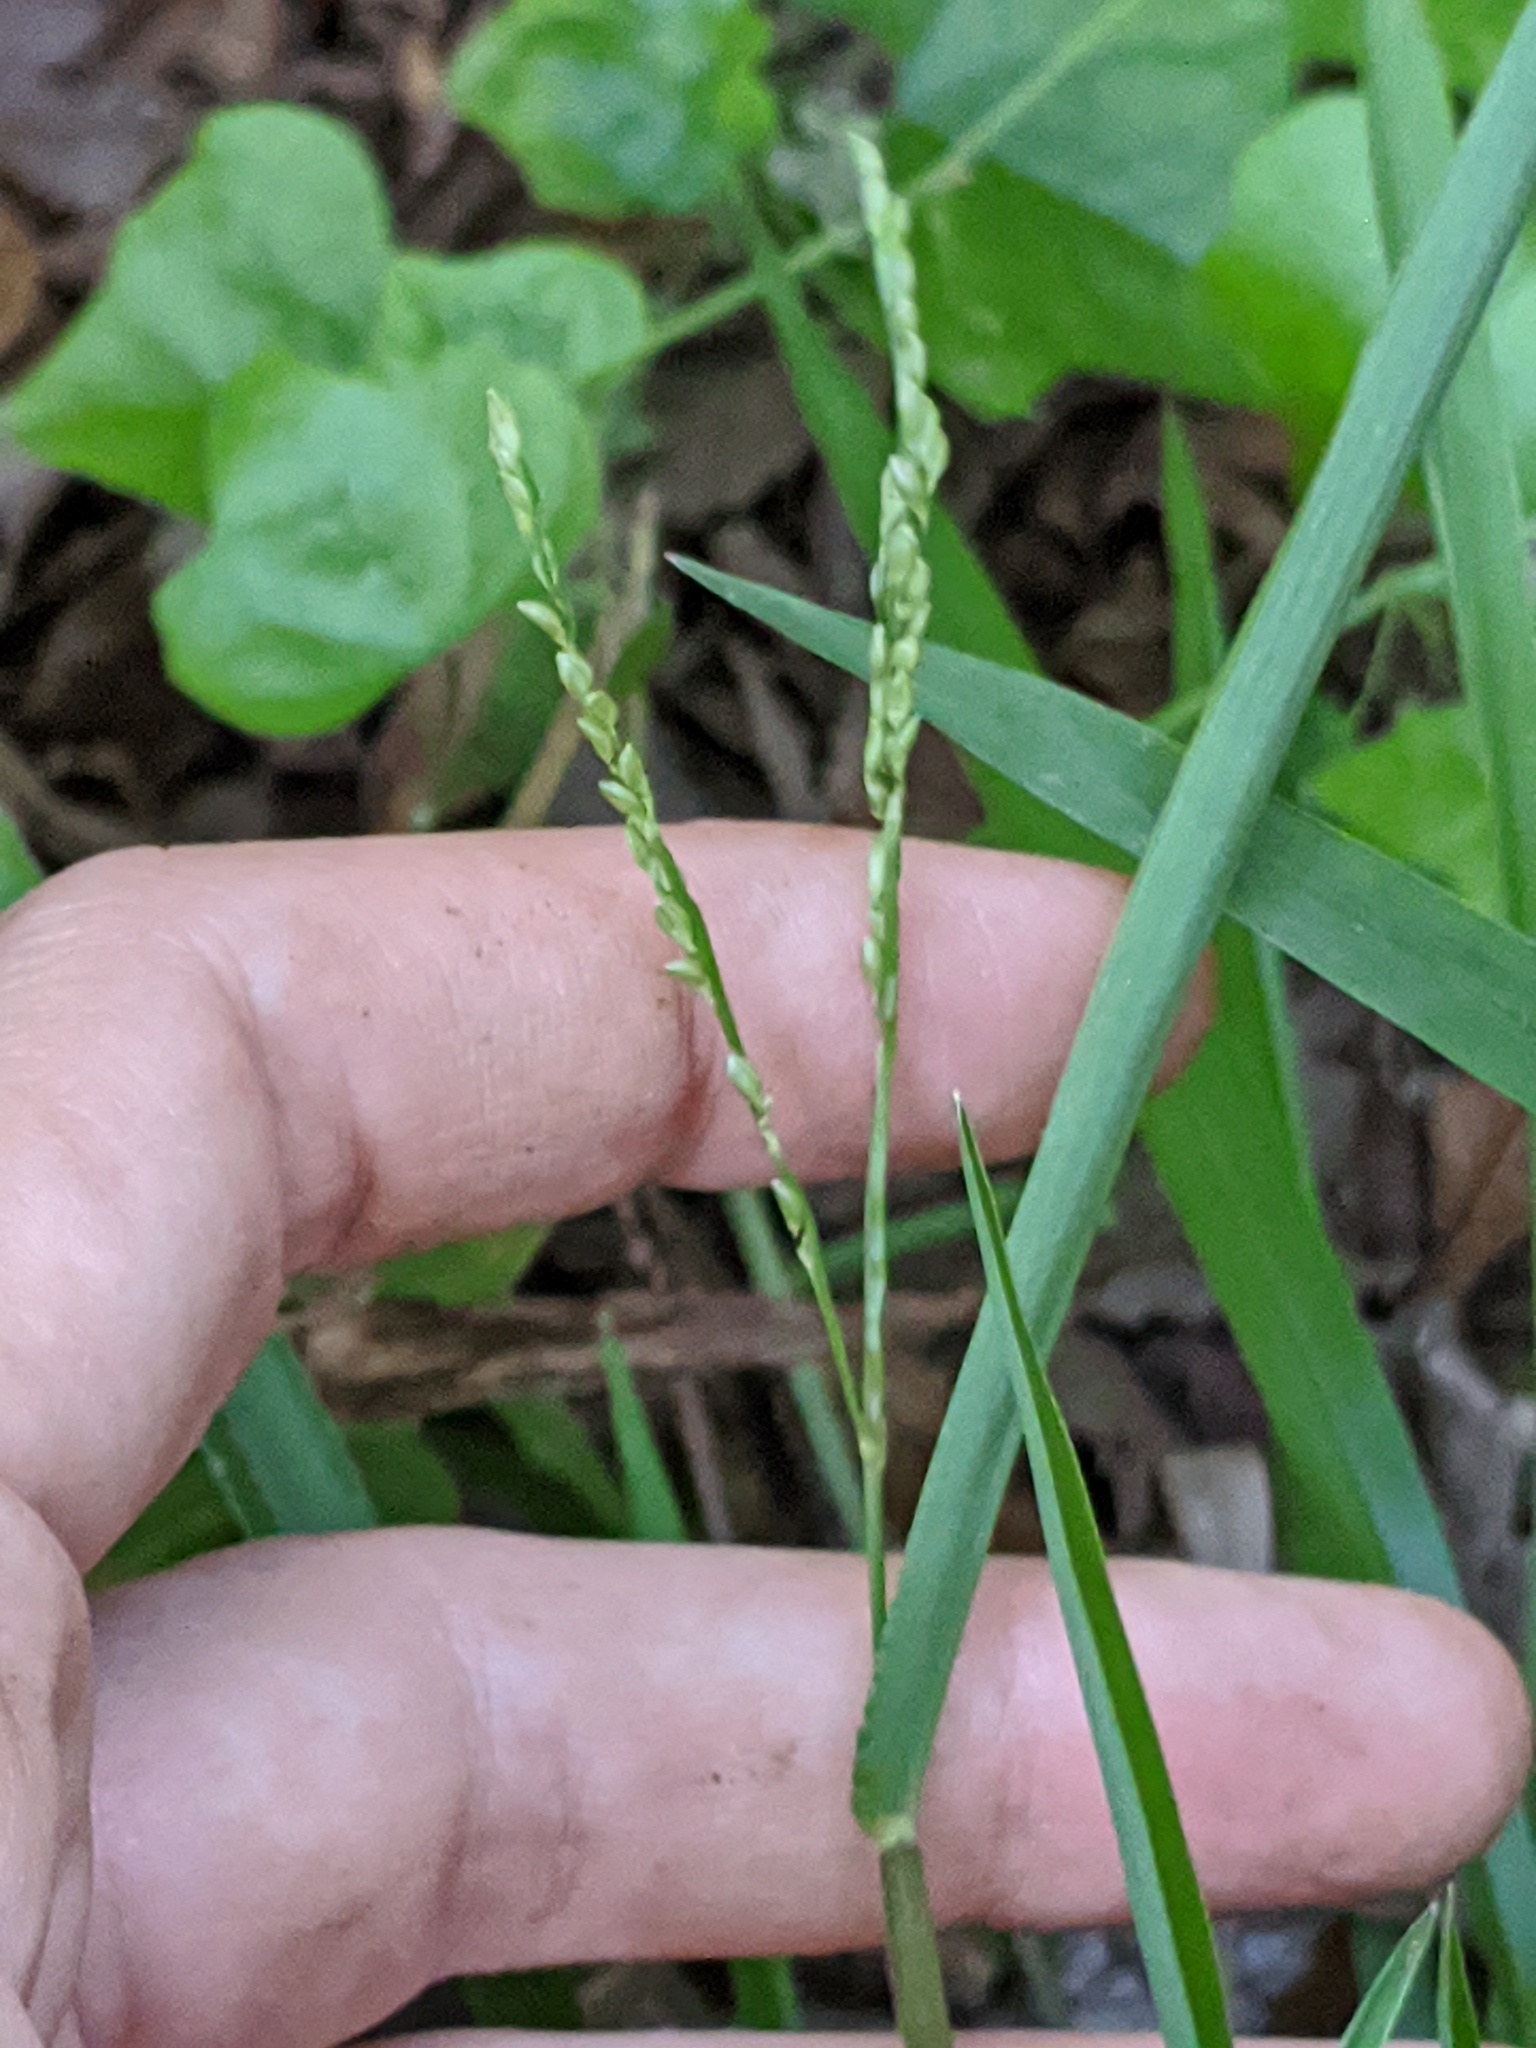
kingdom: Plantae
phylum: Tracheophyta
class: Liliopsida
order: Poales
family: Poaceae
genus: Paspalum
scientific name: Paspalum langei
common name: Rusty-seed paspalum
